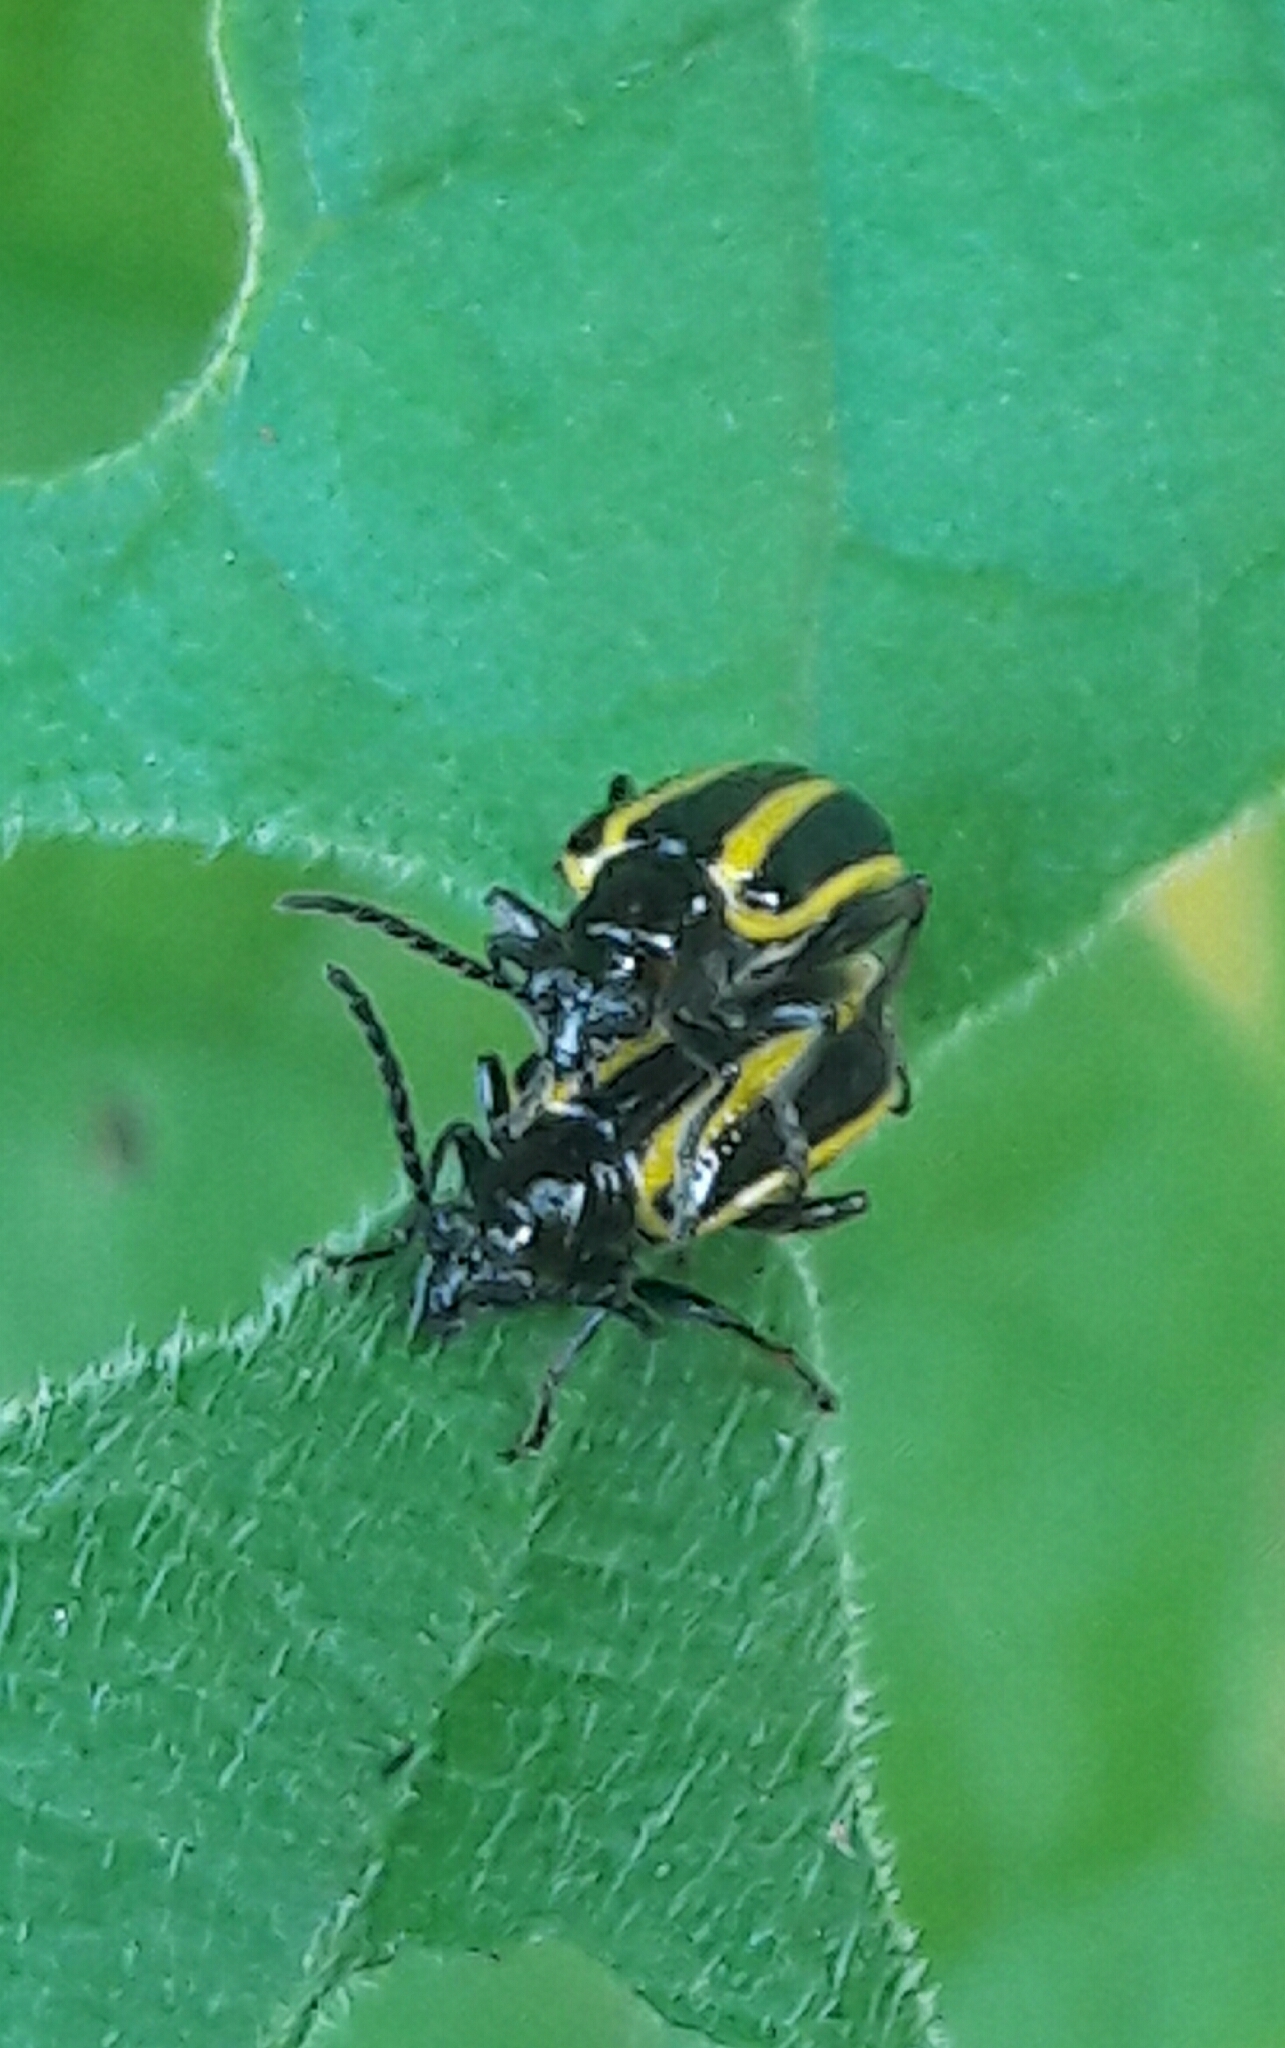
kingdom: Animalia
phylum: Arthropoda
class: Insecta
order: Coleoptera
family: Chrysomelidae
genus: Lema
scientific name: Lema confusa
